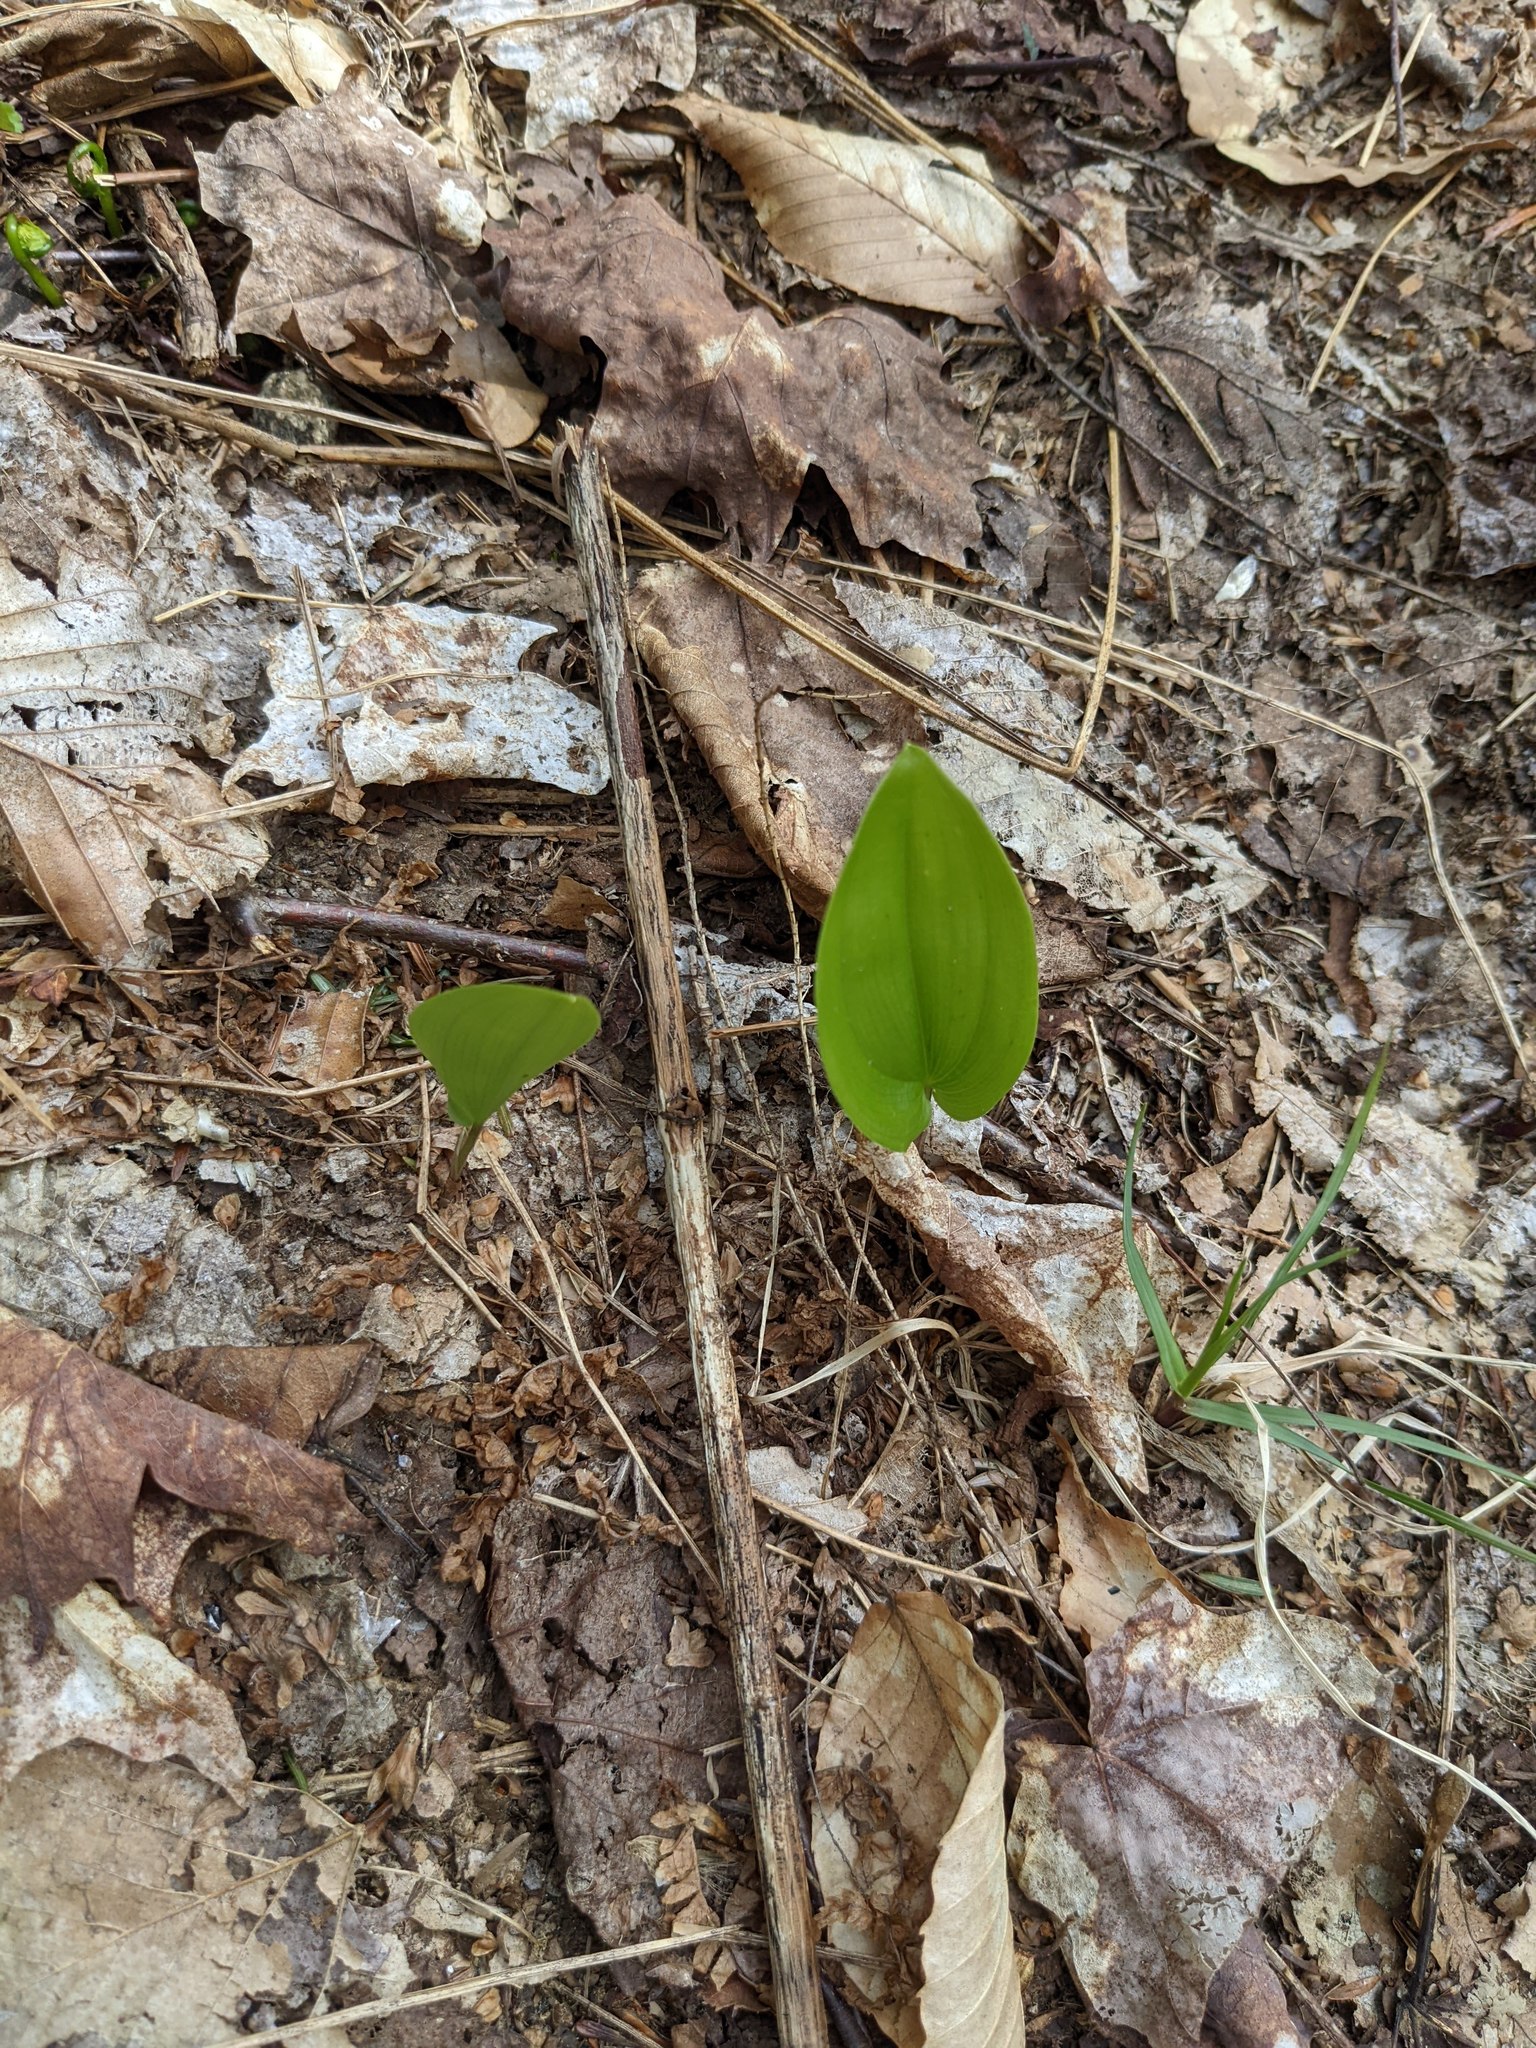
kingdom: Plantae
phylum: Tracheophyta
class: Liliopsida
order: Asparagales
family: Asparagaceae
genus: Maianthemum
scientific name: Maianthemum canadense
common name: False lily-of-the-valley
